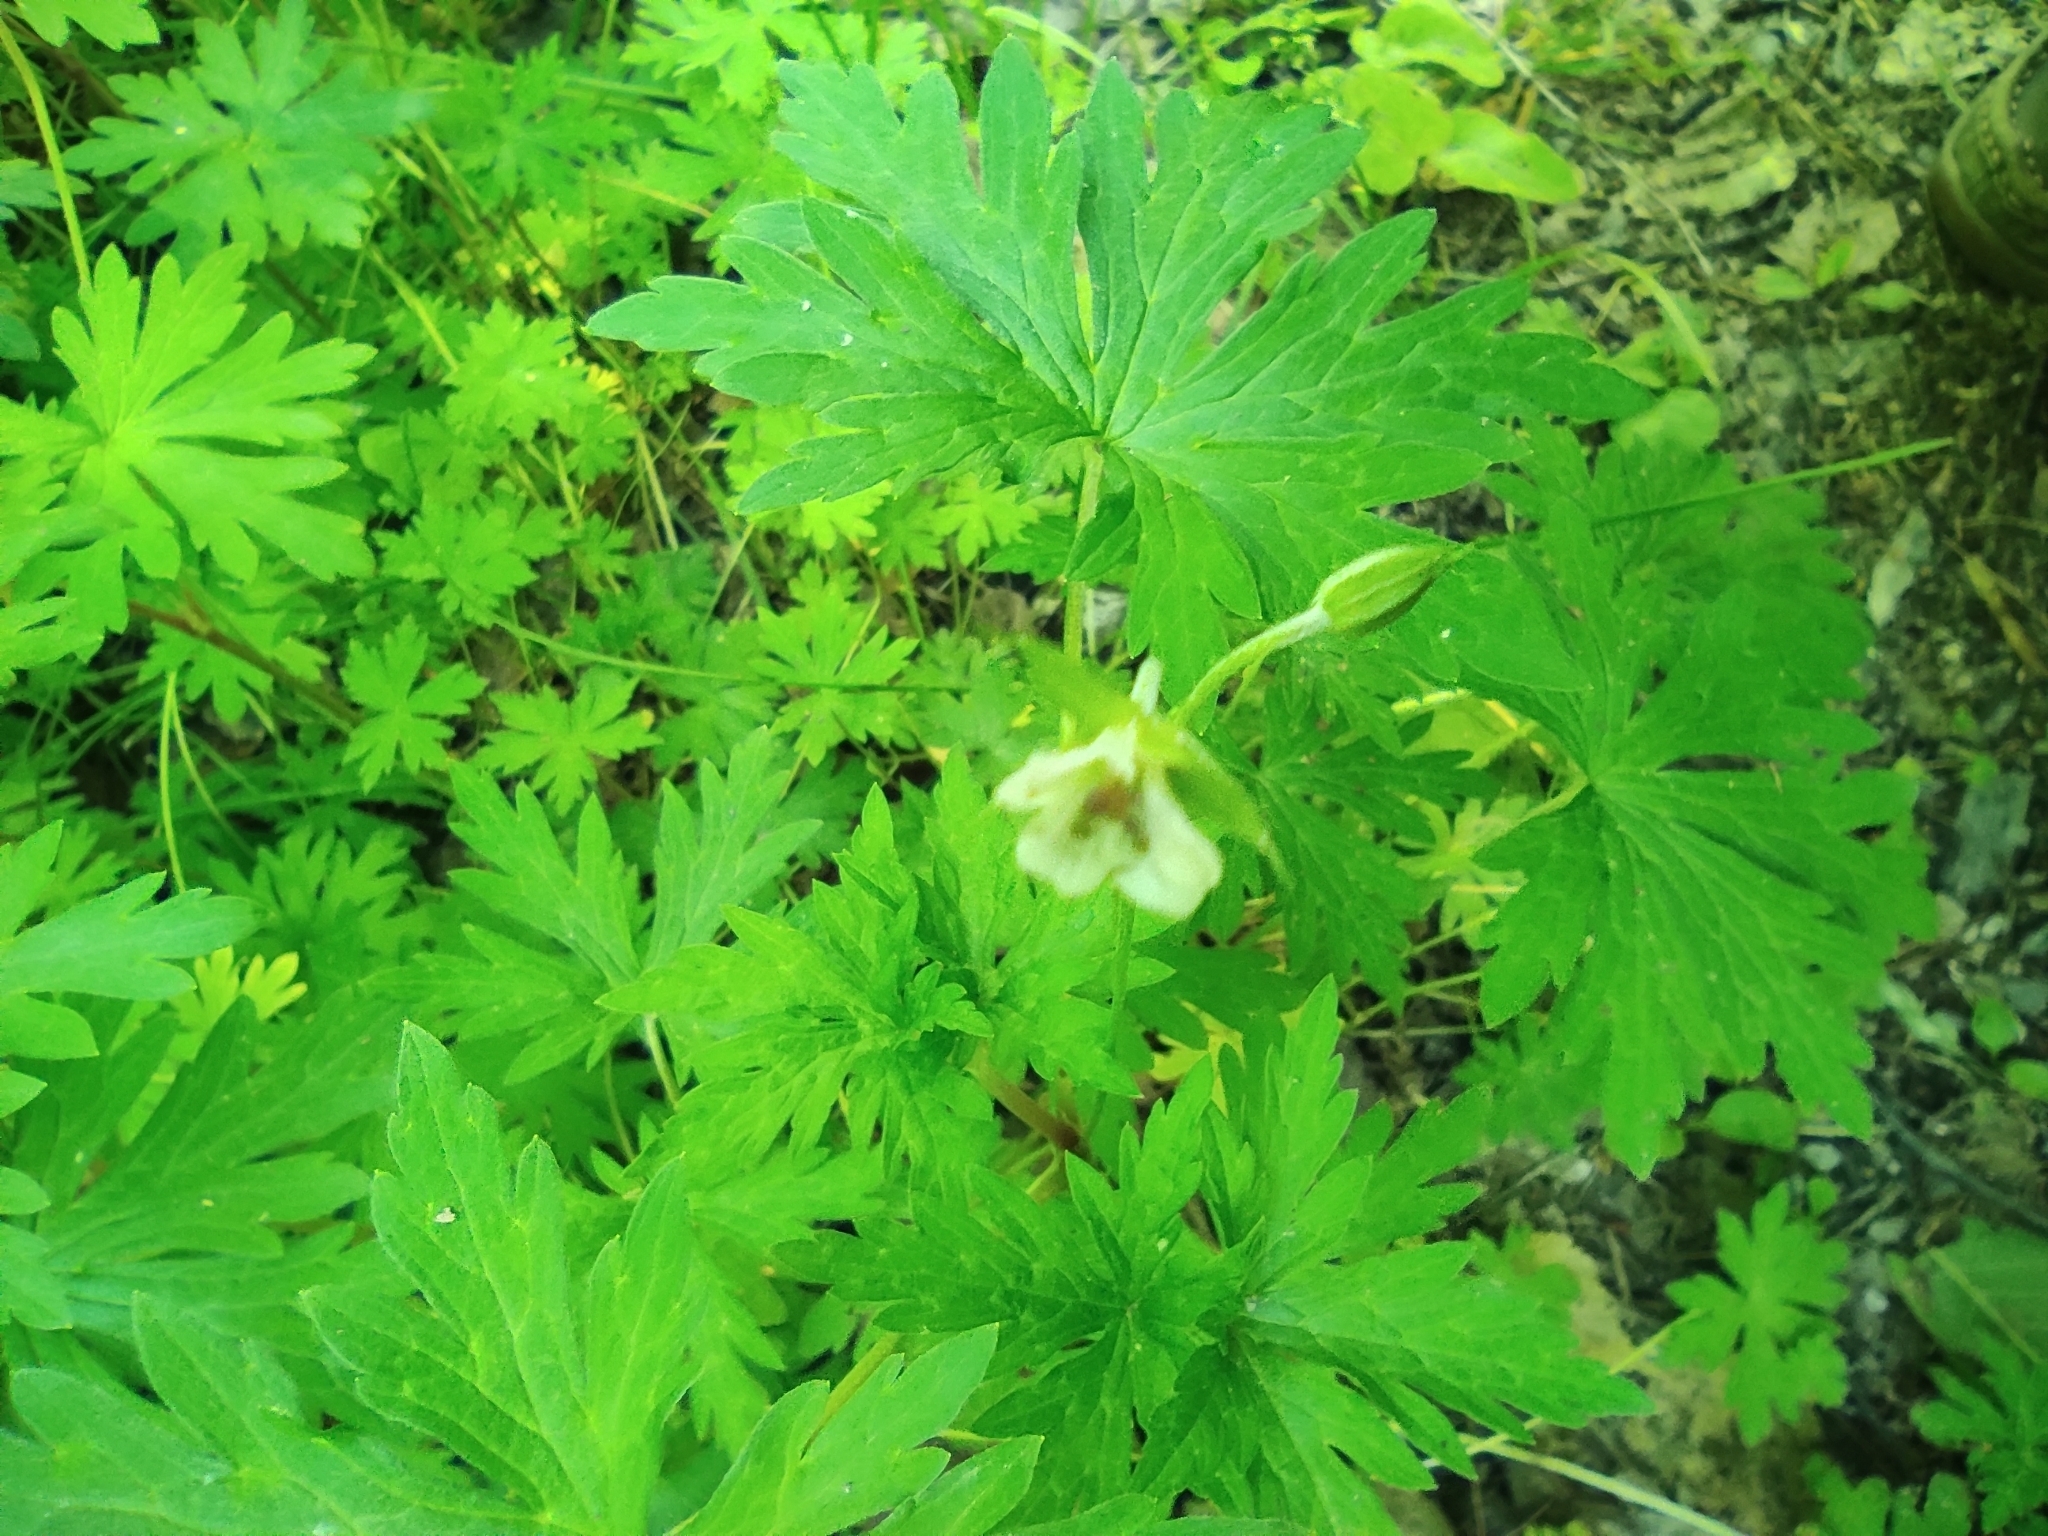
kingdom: Plantae
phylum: Tracheophyta
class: Magnoliopsida
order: Geraniales
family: Geraniaceae
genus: Geranium
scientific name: Geranium sibiricum
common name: Siberian crane's-bill
